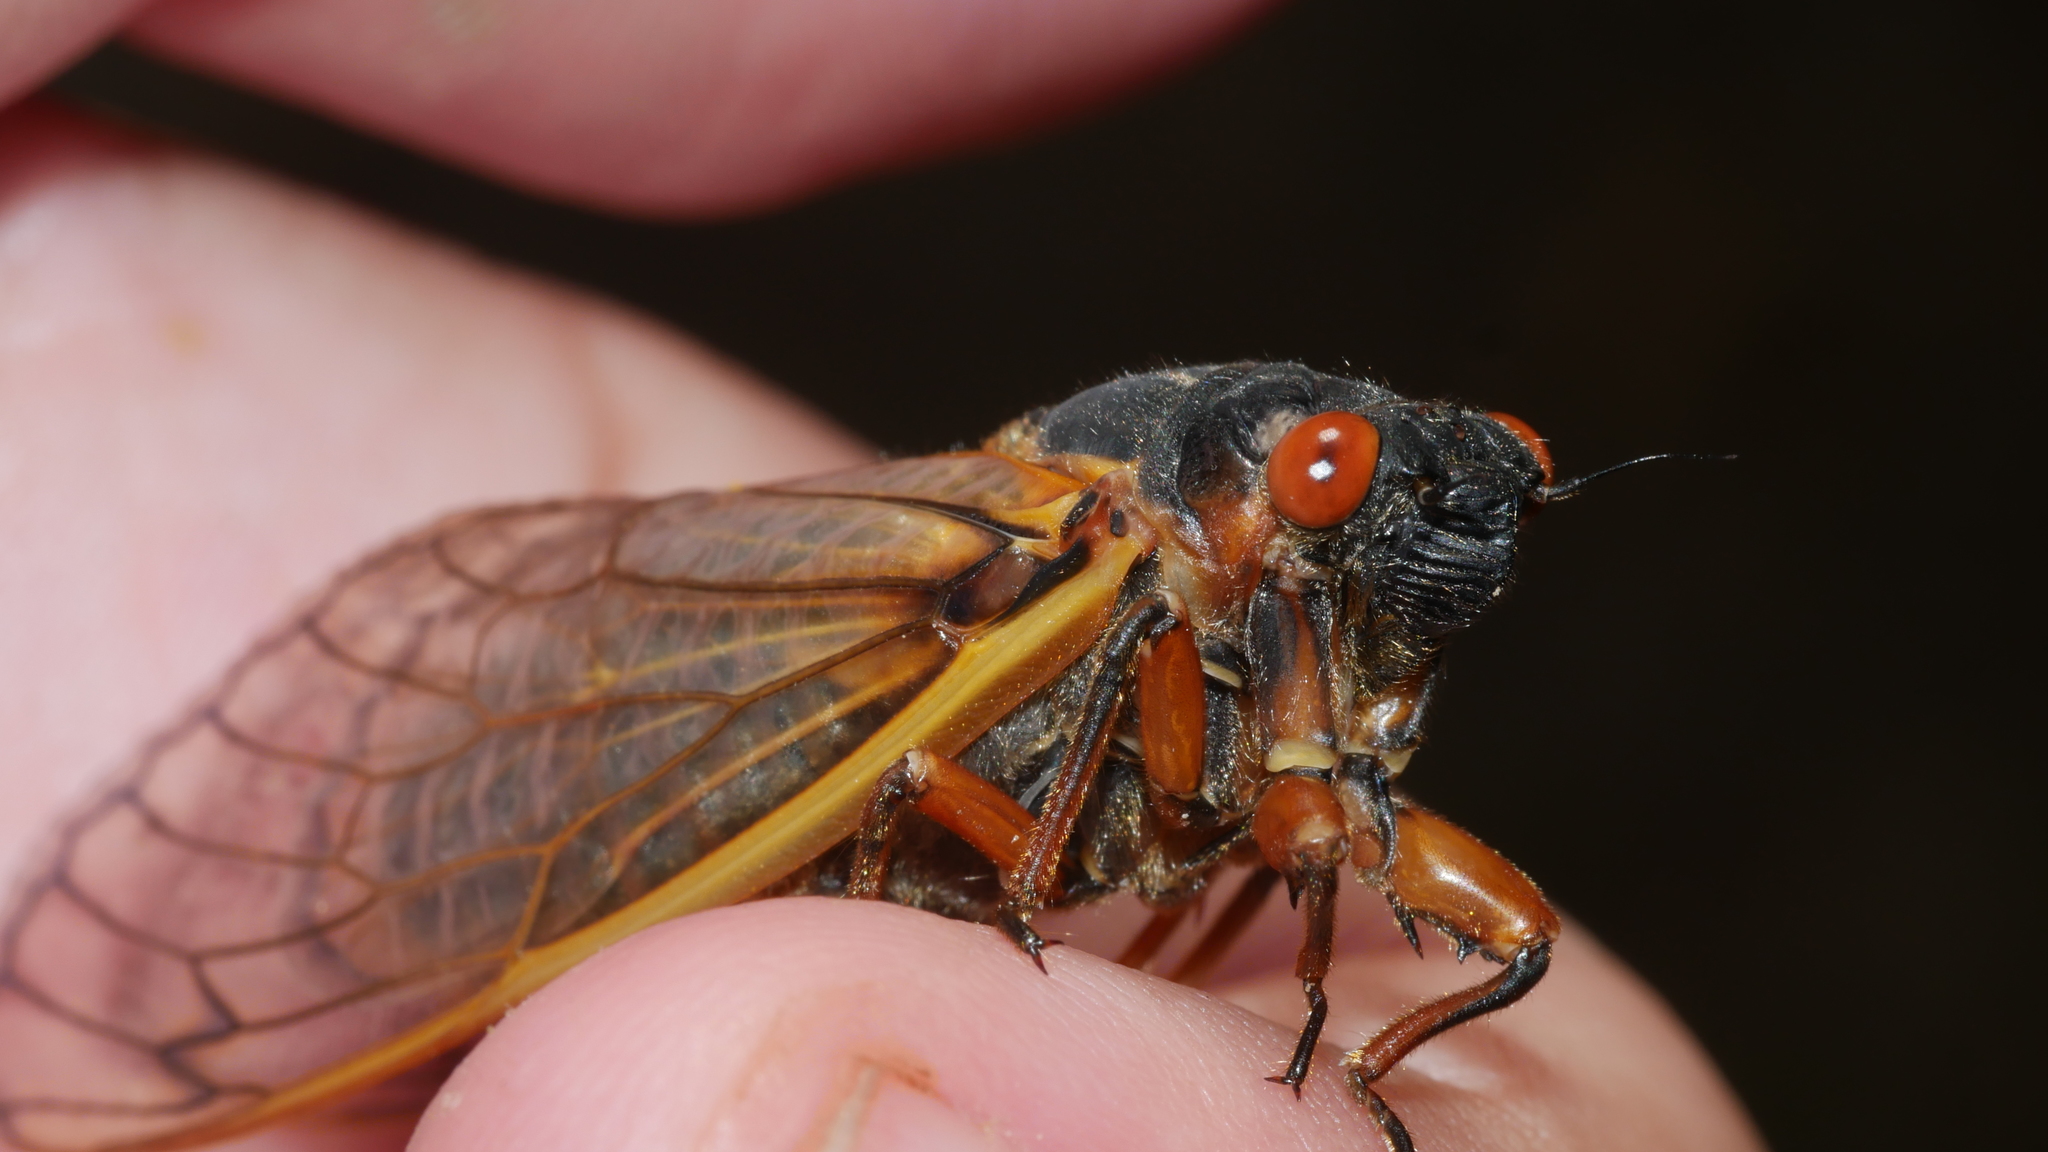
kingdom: Animalia
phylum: Arthropoda
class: Insecta
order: Hemiptera
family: Cicadidae
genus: Magicicada
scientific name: Magicicada septendecim
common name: Periodical cicada
